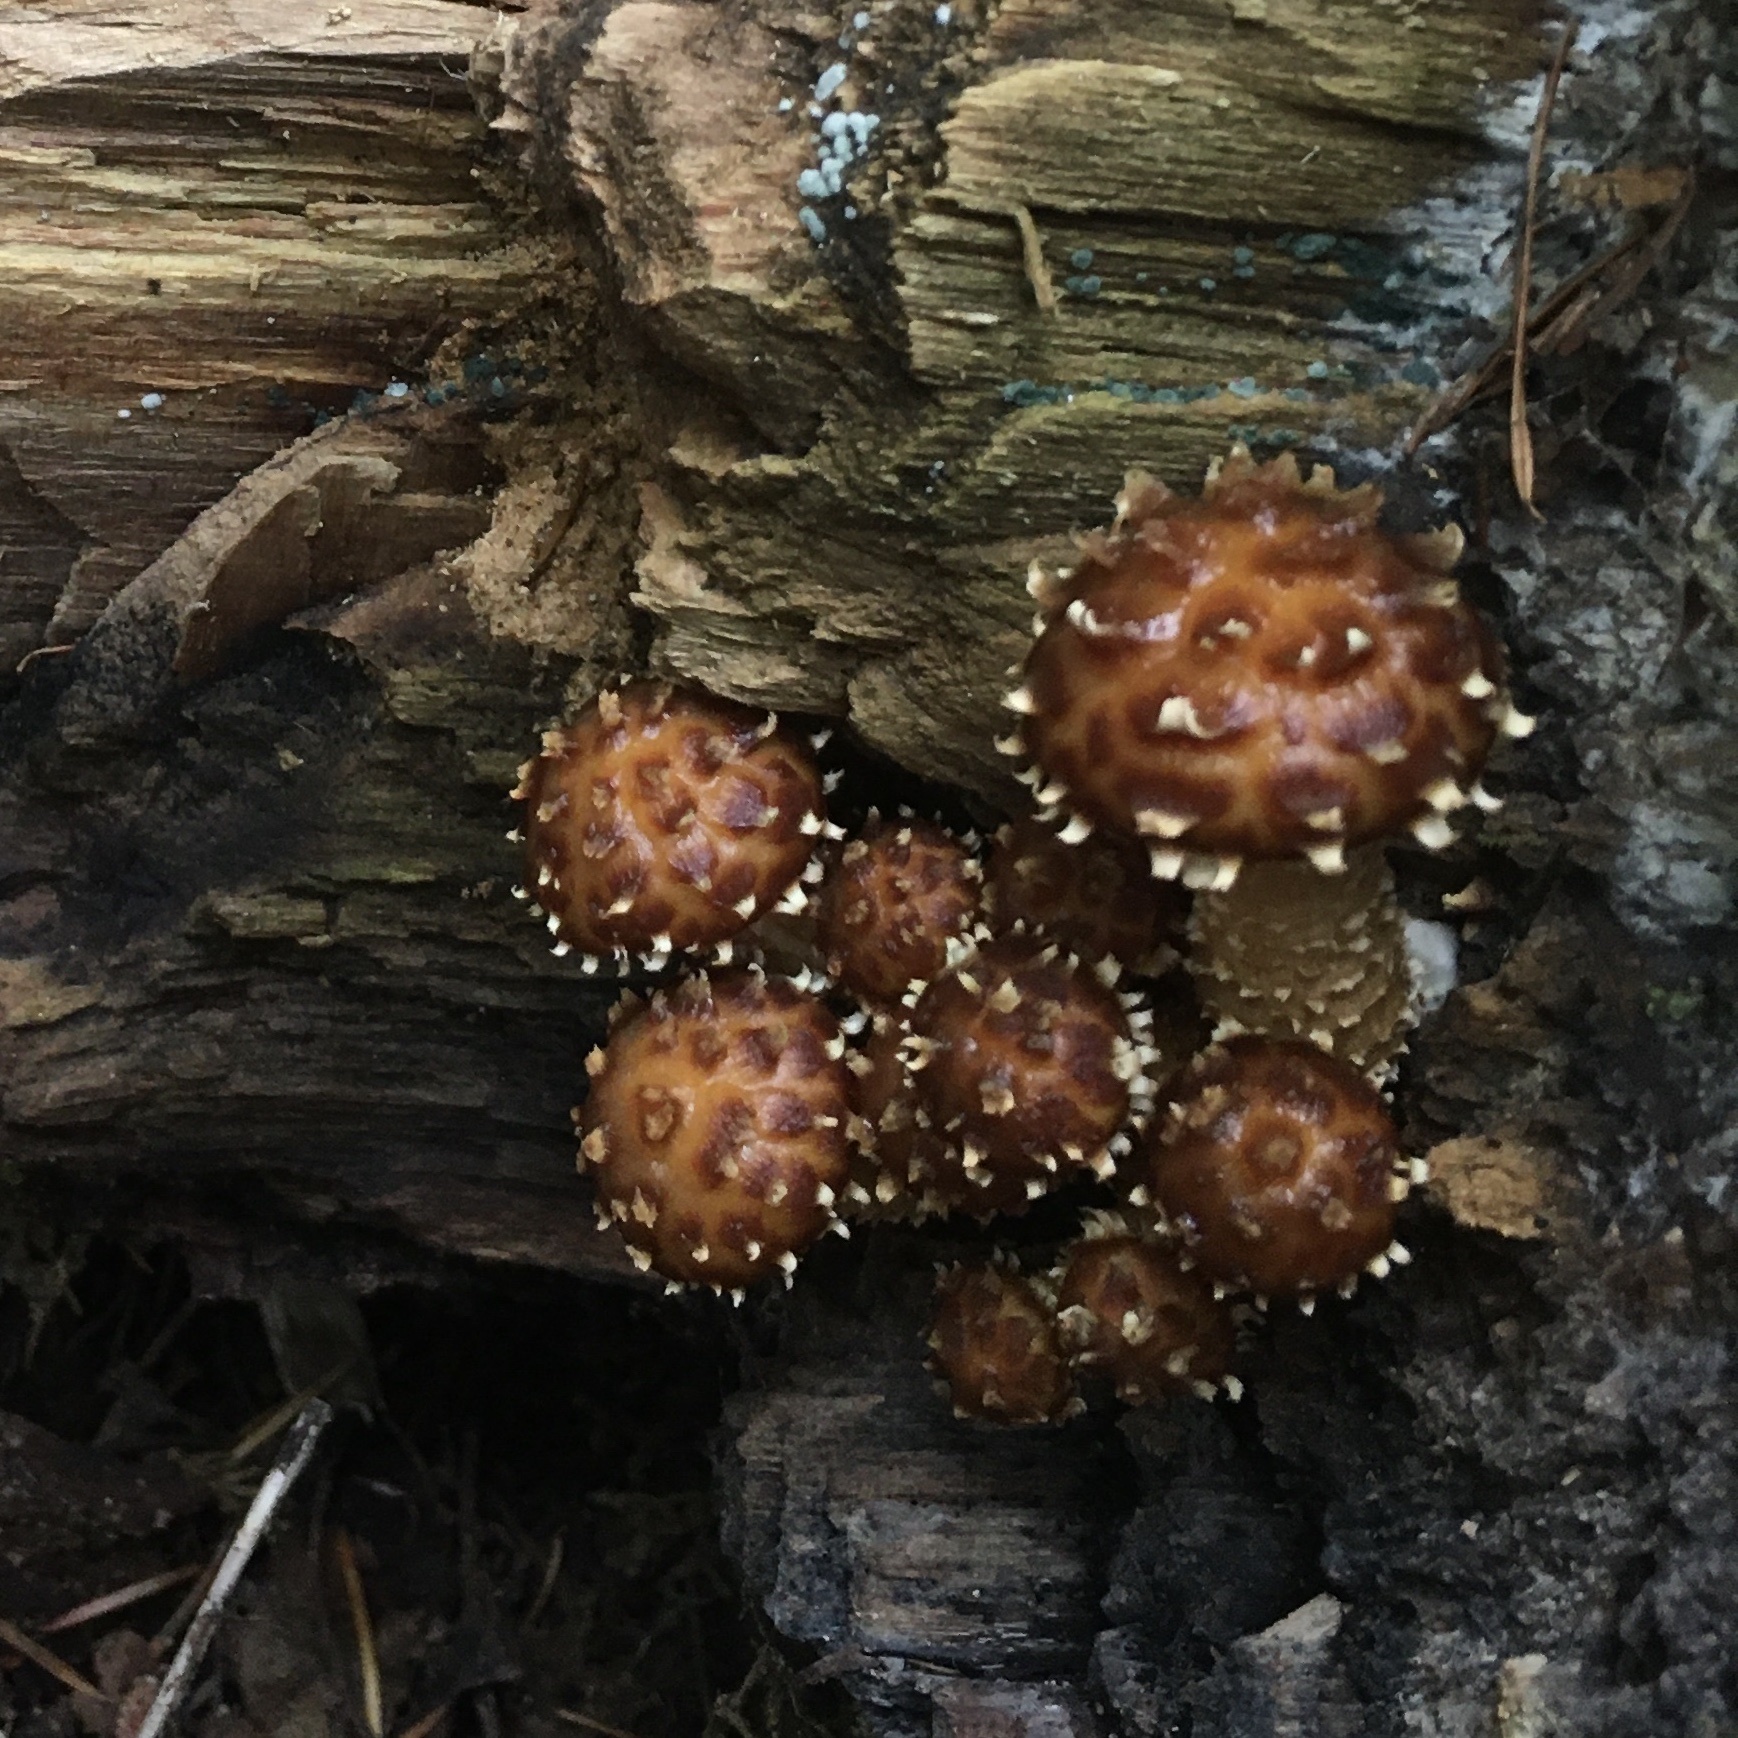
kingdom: Fungi
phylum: Basidiomycota
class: Agaricomycetes
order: Agaricales
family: Tubariaceae
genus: Hemistropharia
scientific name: Hemistropharia albocrenulata
